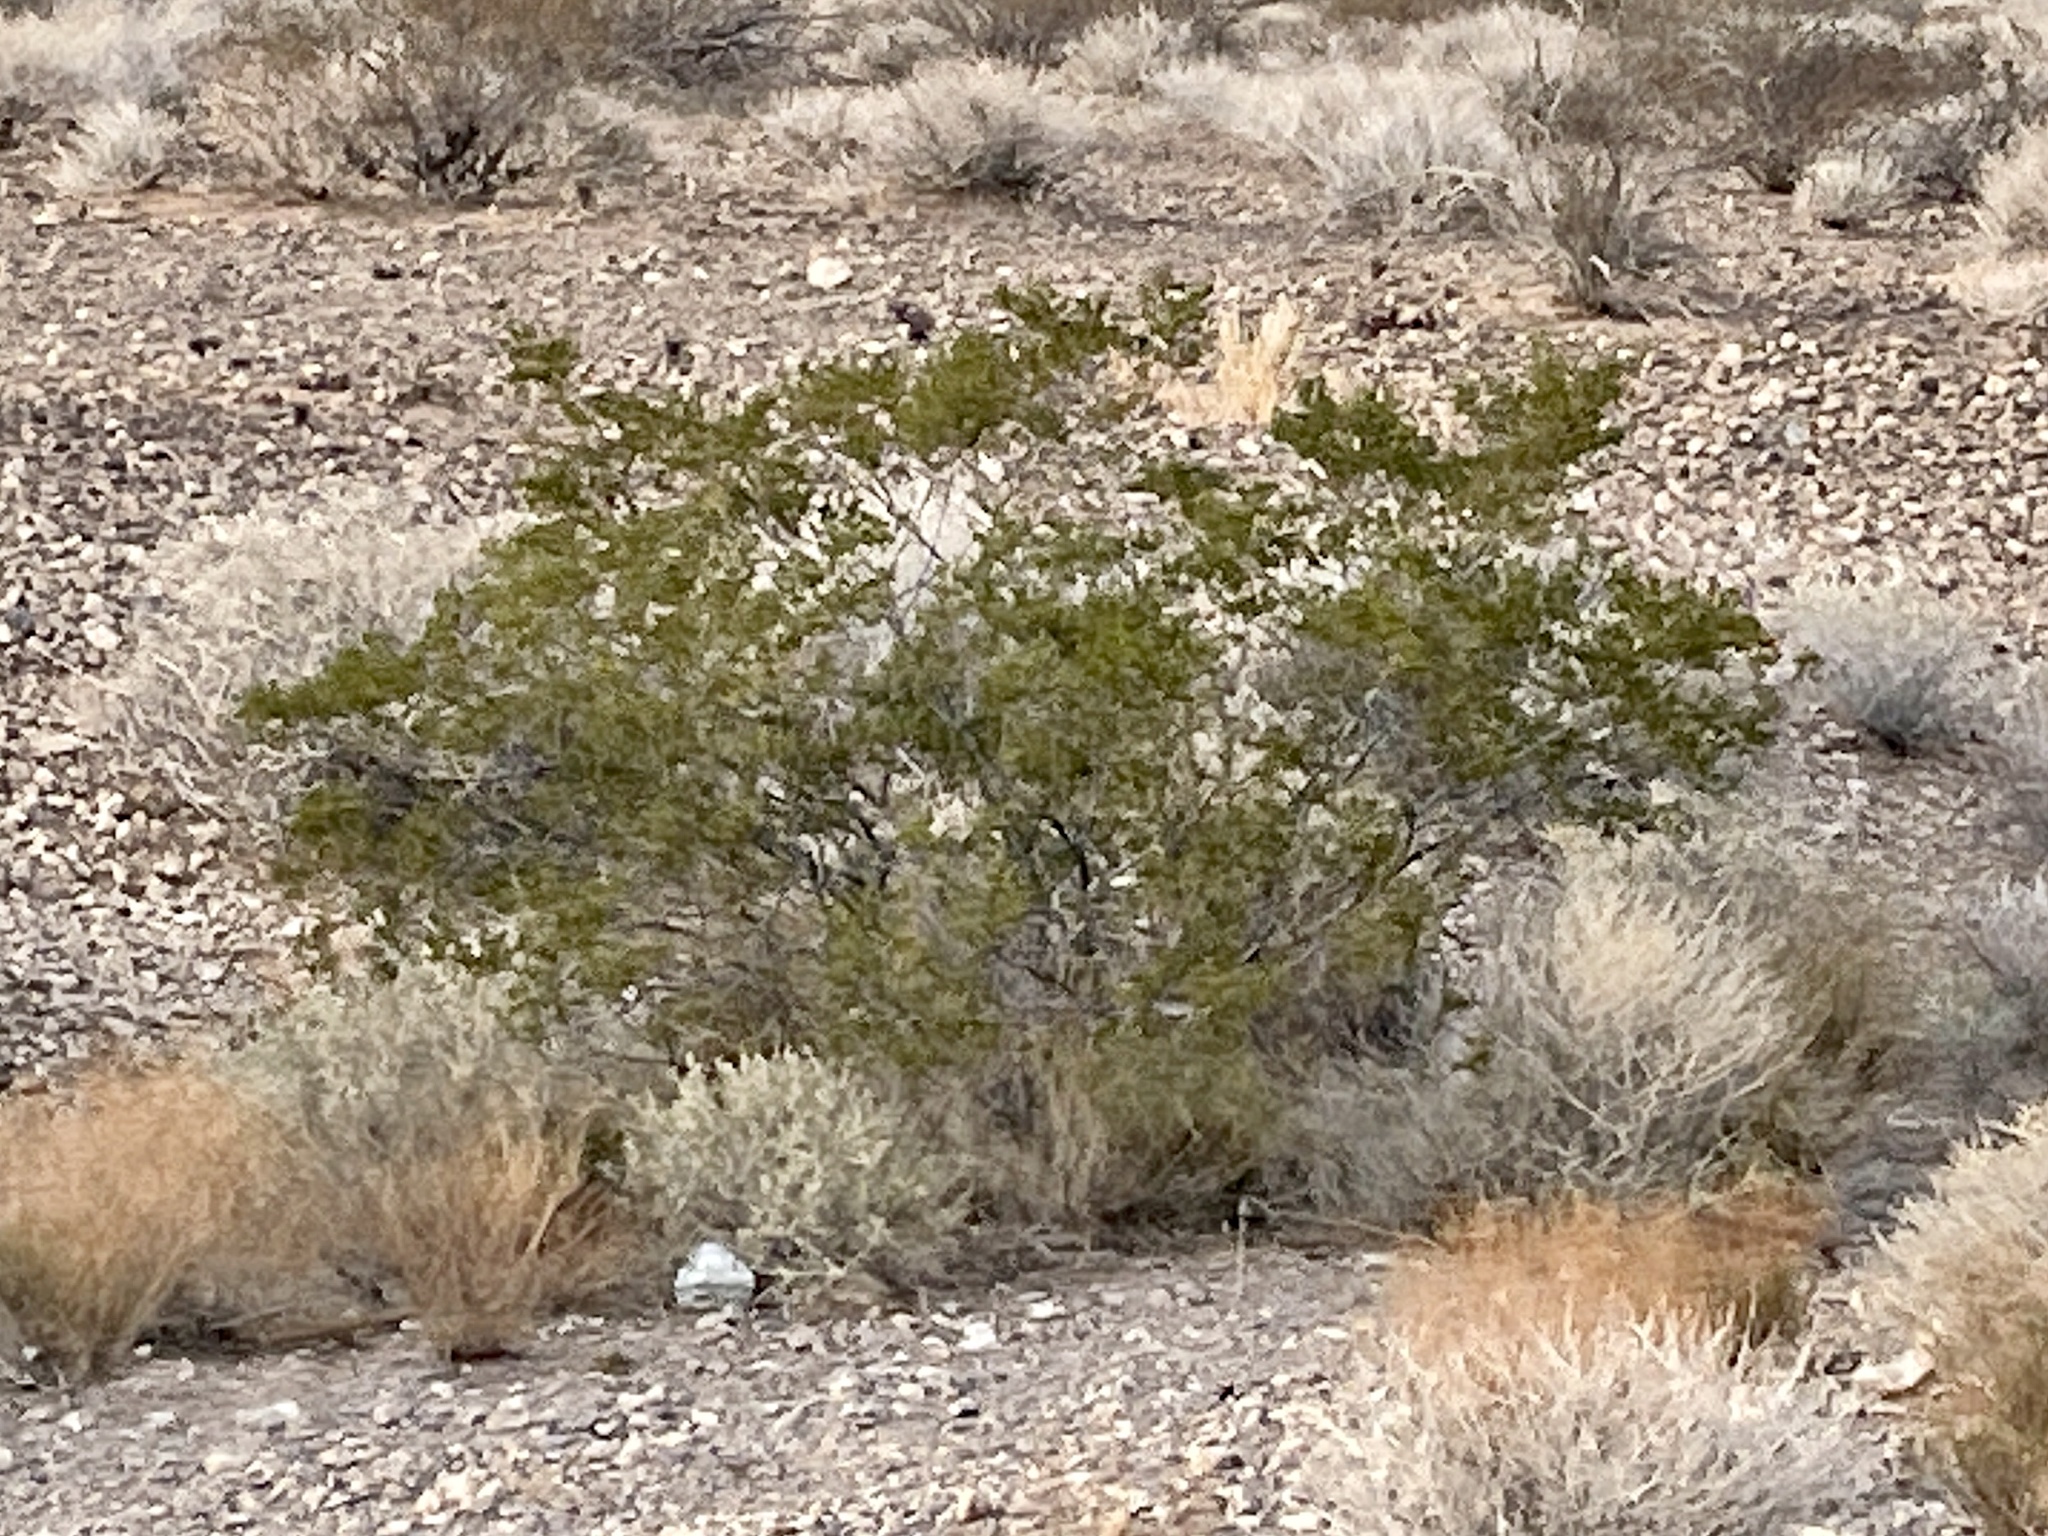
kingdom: Plantae
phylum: Tracheophyta
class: Magnoliopsida
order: Zygophyllales
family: Zygophyllaceae
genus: Larrea
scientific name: Larrea tridentata
